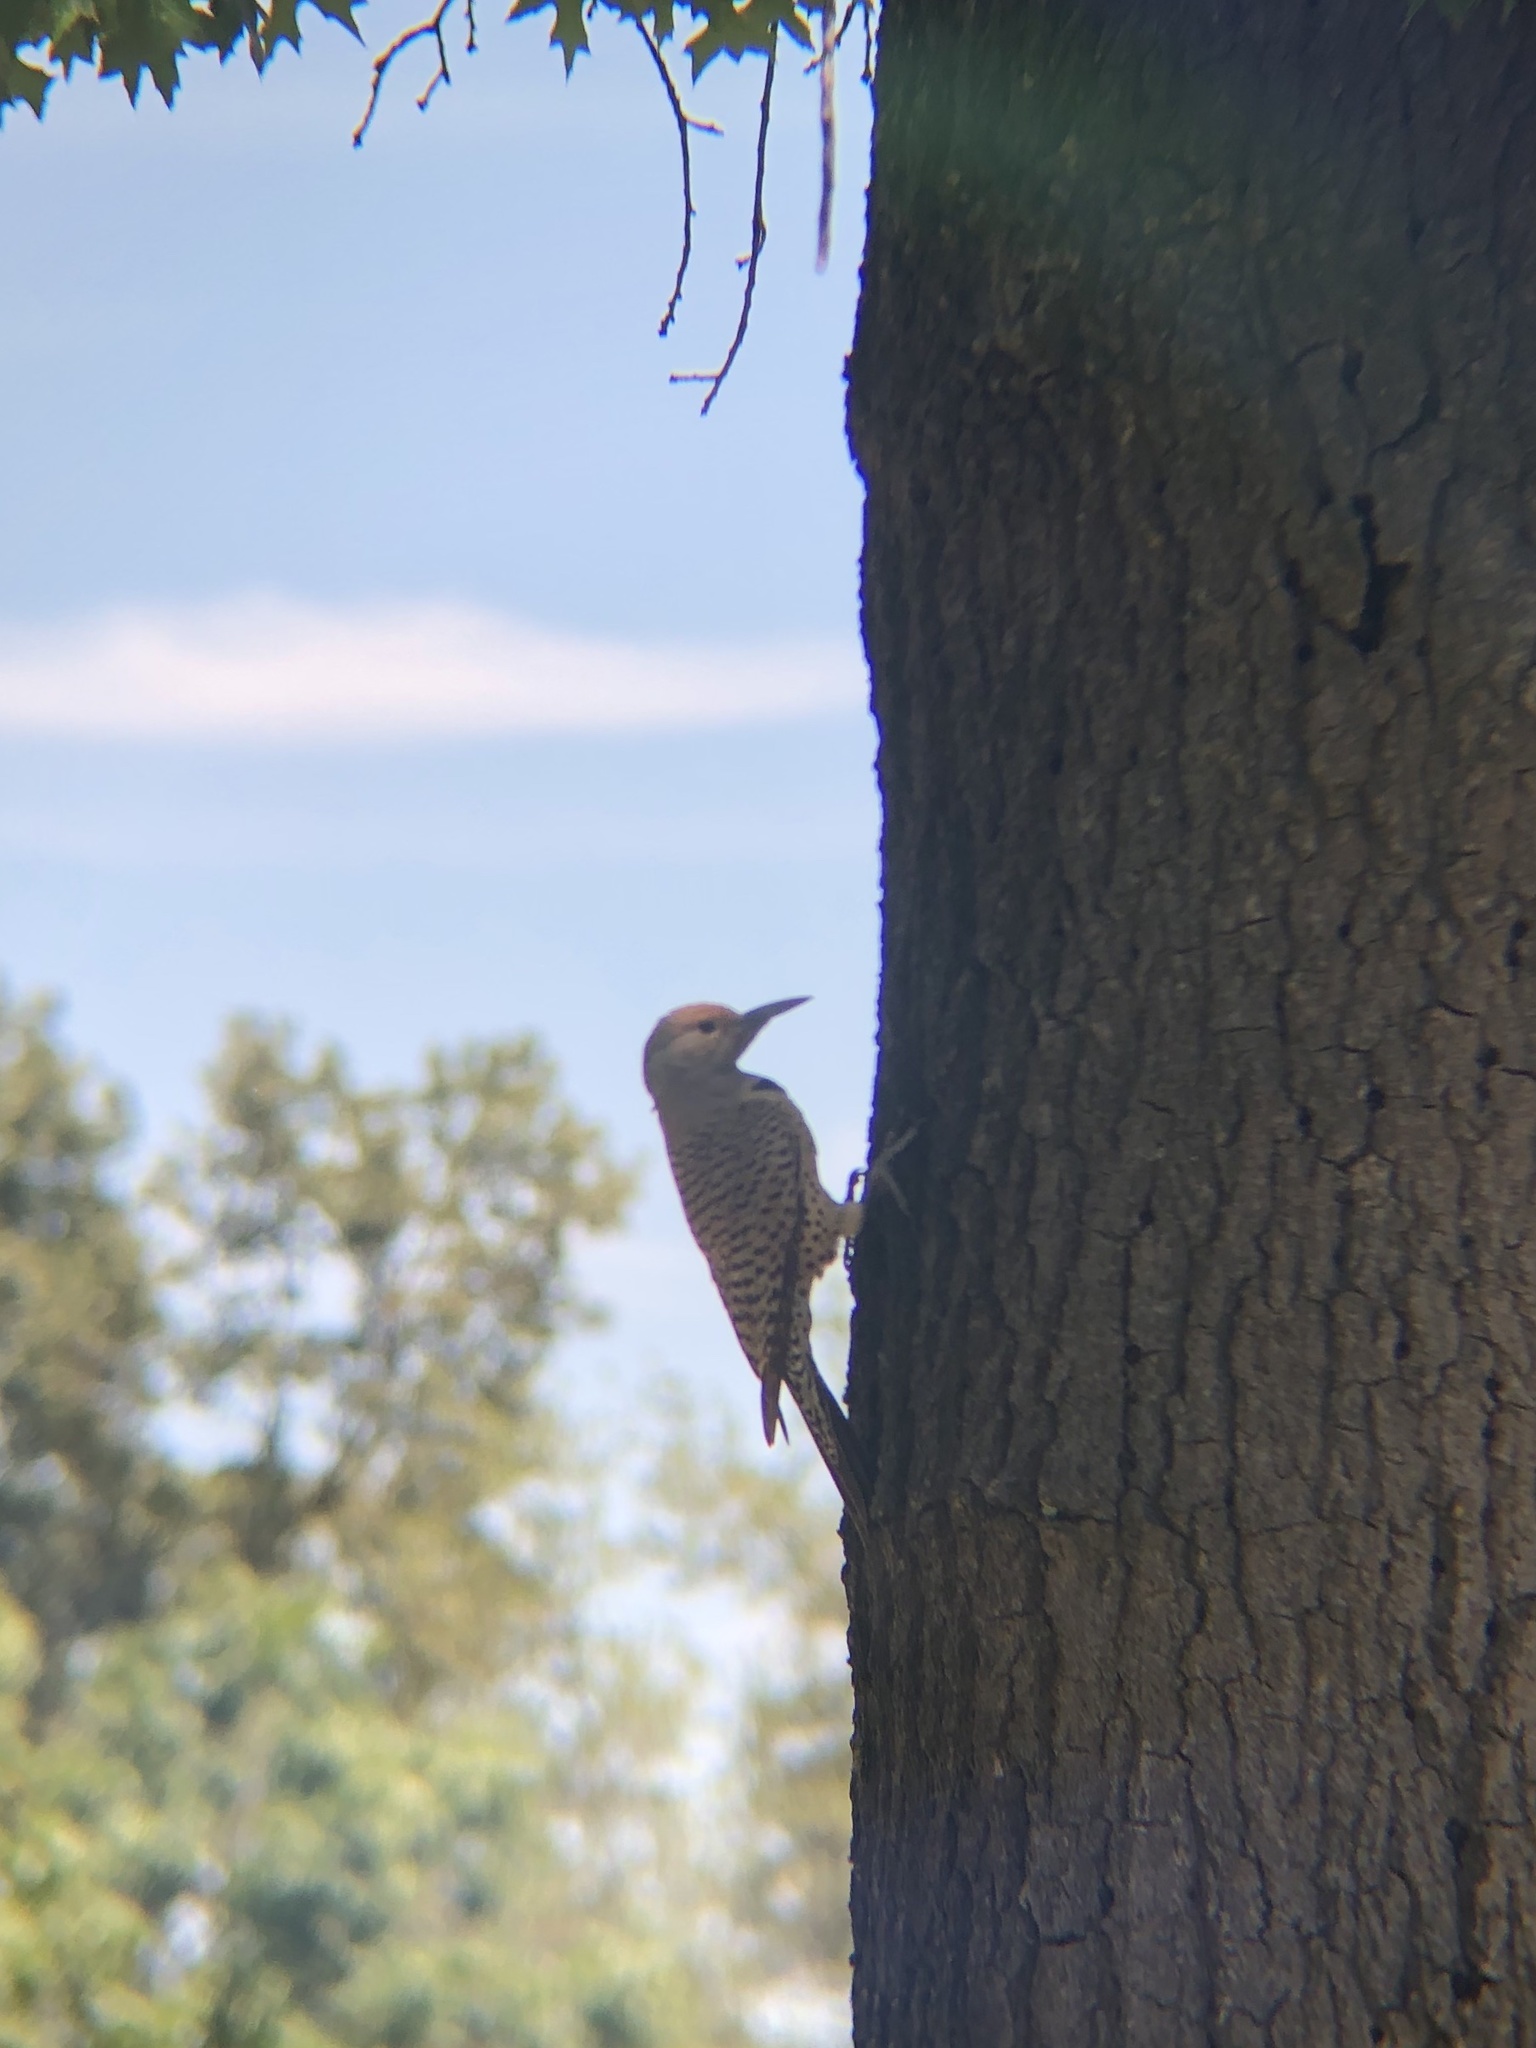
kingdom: Animalia
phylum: Chordata
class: Aves
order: Piciformes
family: Picidae
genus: Colaptes
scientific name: Colaptes auratus
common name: Northern flicker
